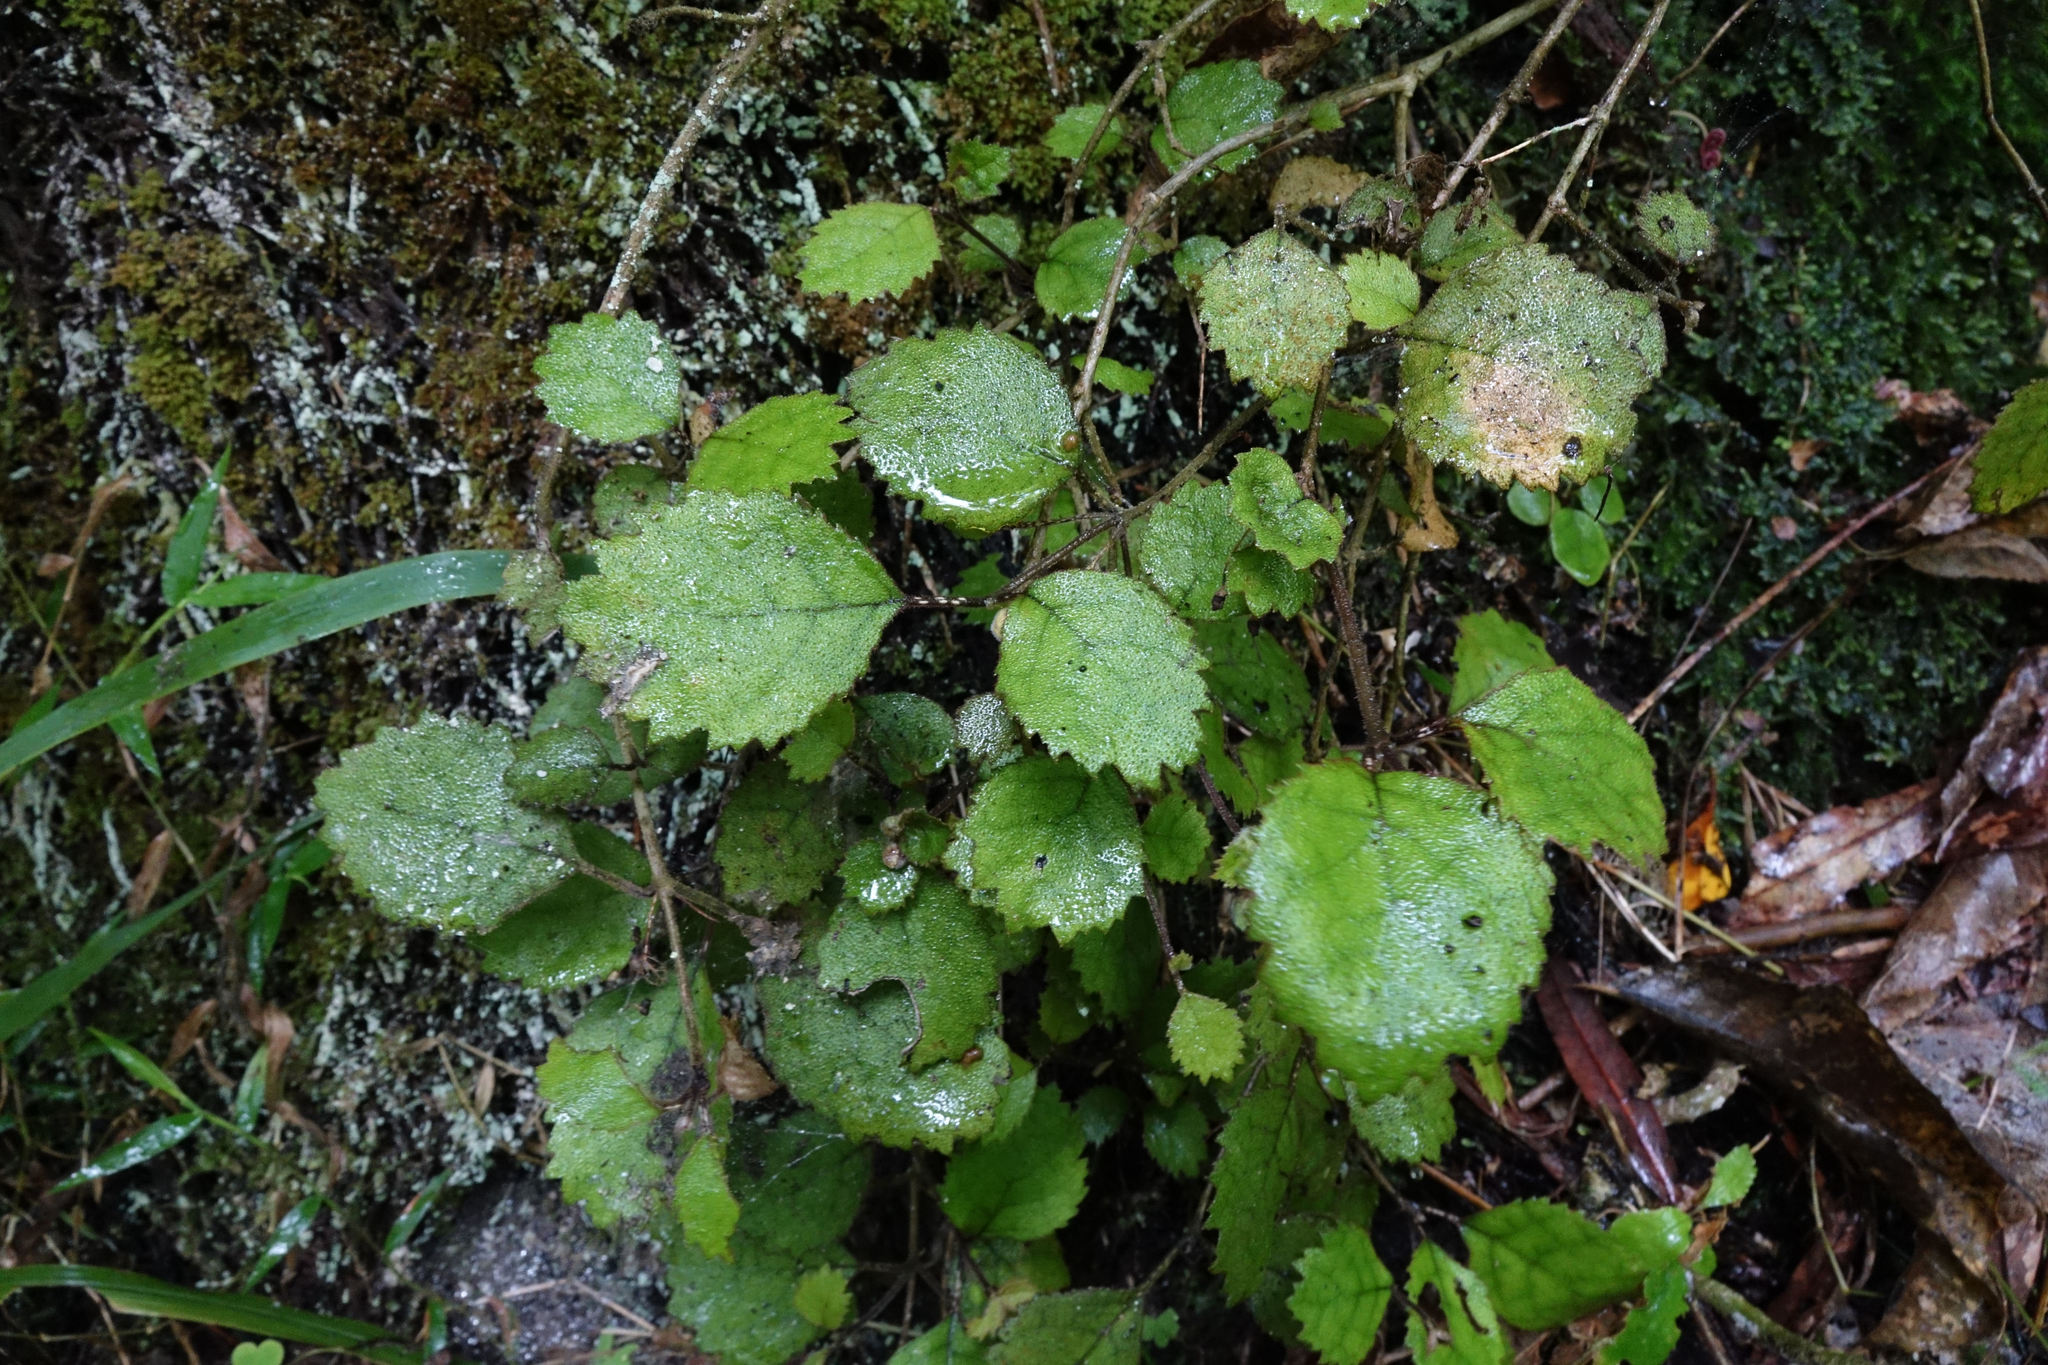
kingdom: Plantae
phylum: Tracheophyta
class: Magnoliopsida
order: Lamiales
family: Gesneriaceae
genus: Rhabdothamnus
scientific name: Rhabdothamnus solandri
